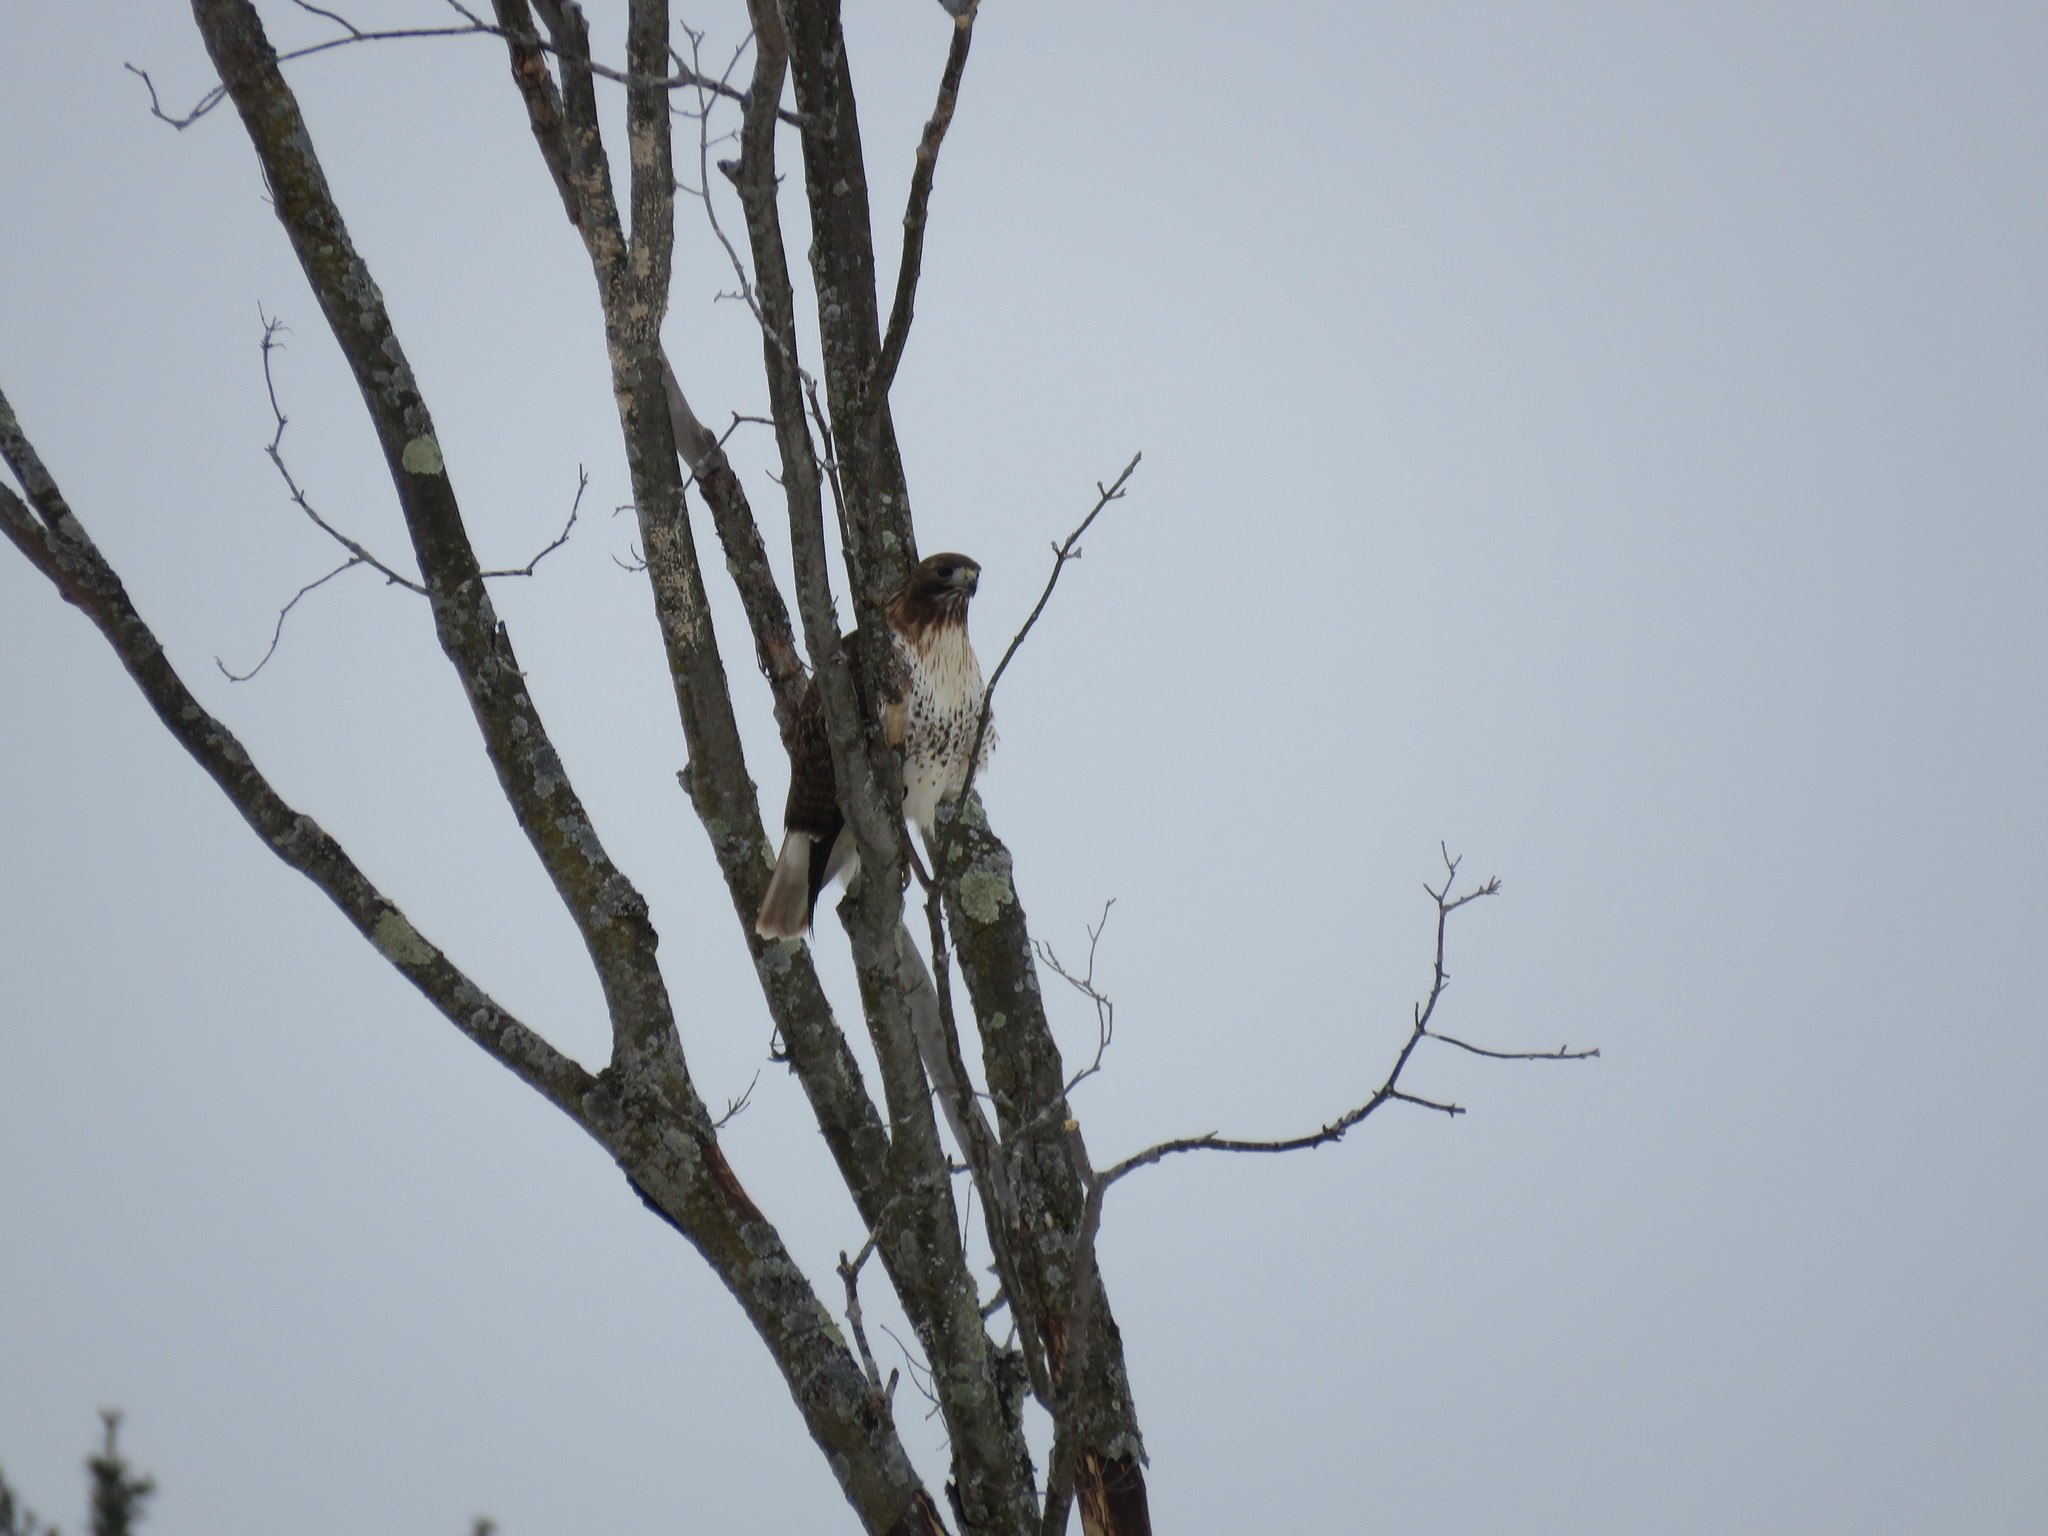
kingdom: Animalia
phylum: Chordata
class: Aves
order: Accipitriformes
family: Accipitridae
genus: Buteo
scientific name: Buteo jamaicensis
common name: Red-tailed hawk
